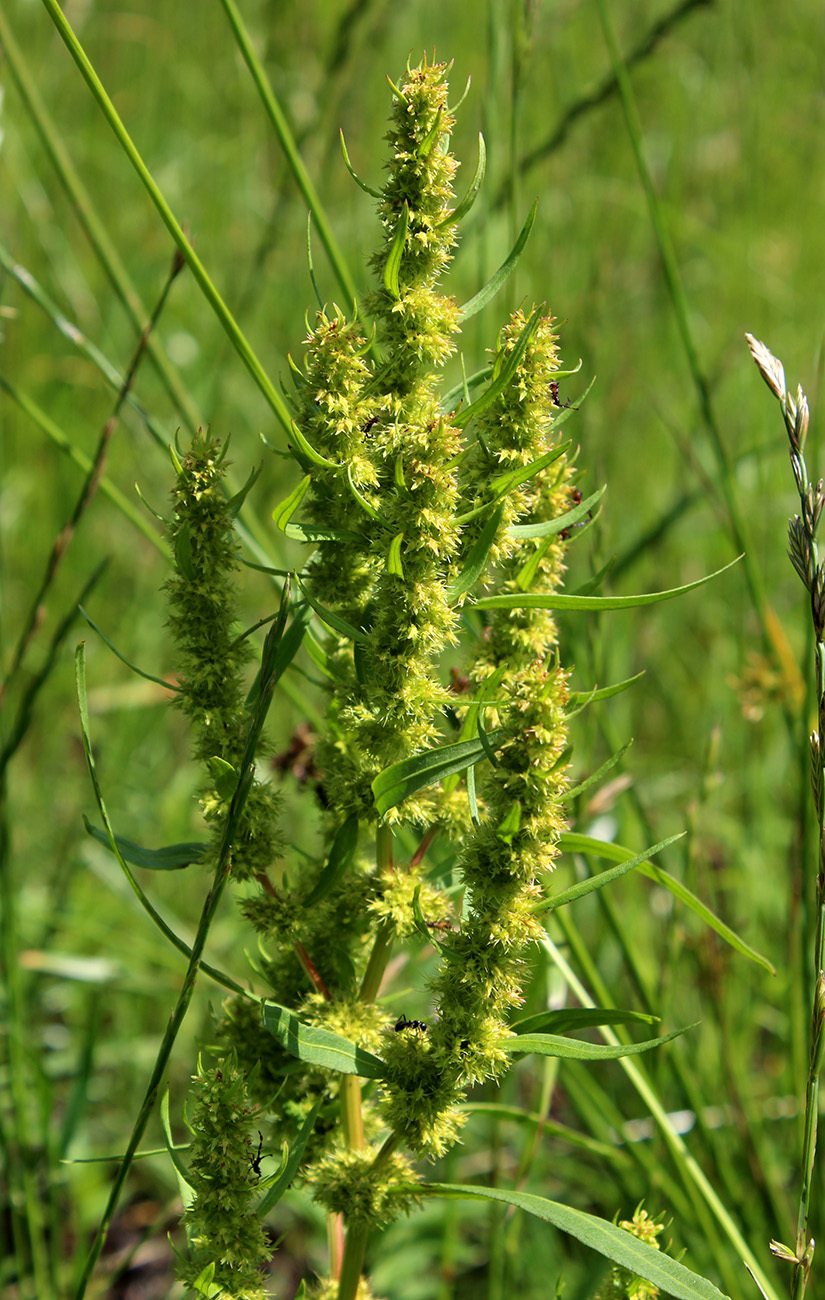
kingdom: Plantae
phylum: Tracheophyta
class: Magnoliopsida
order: Caryophyllales
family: Polygonaceae
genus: Rumex
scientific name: Rumex maritimus
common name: Golden dock
